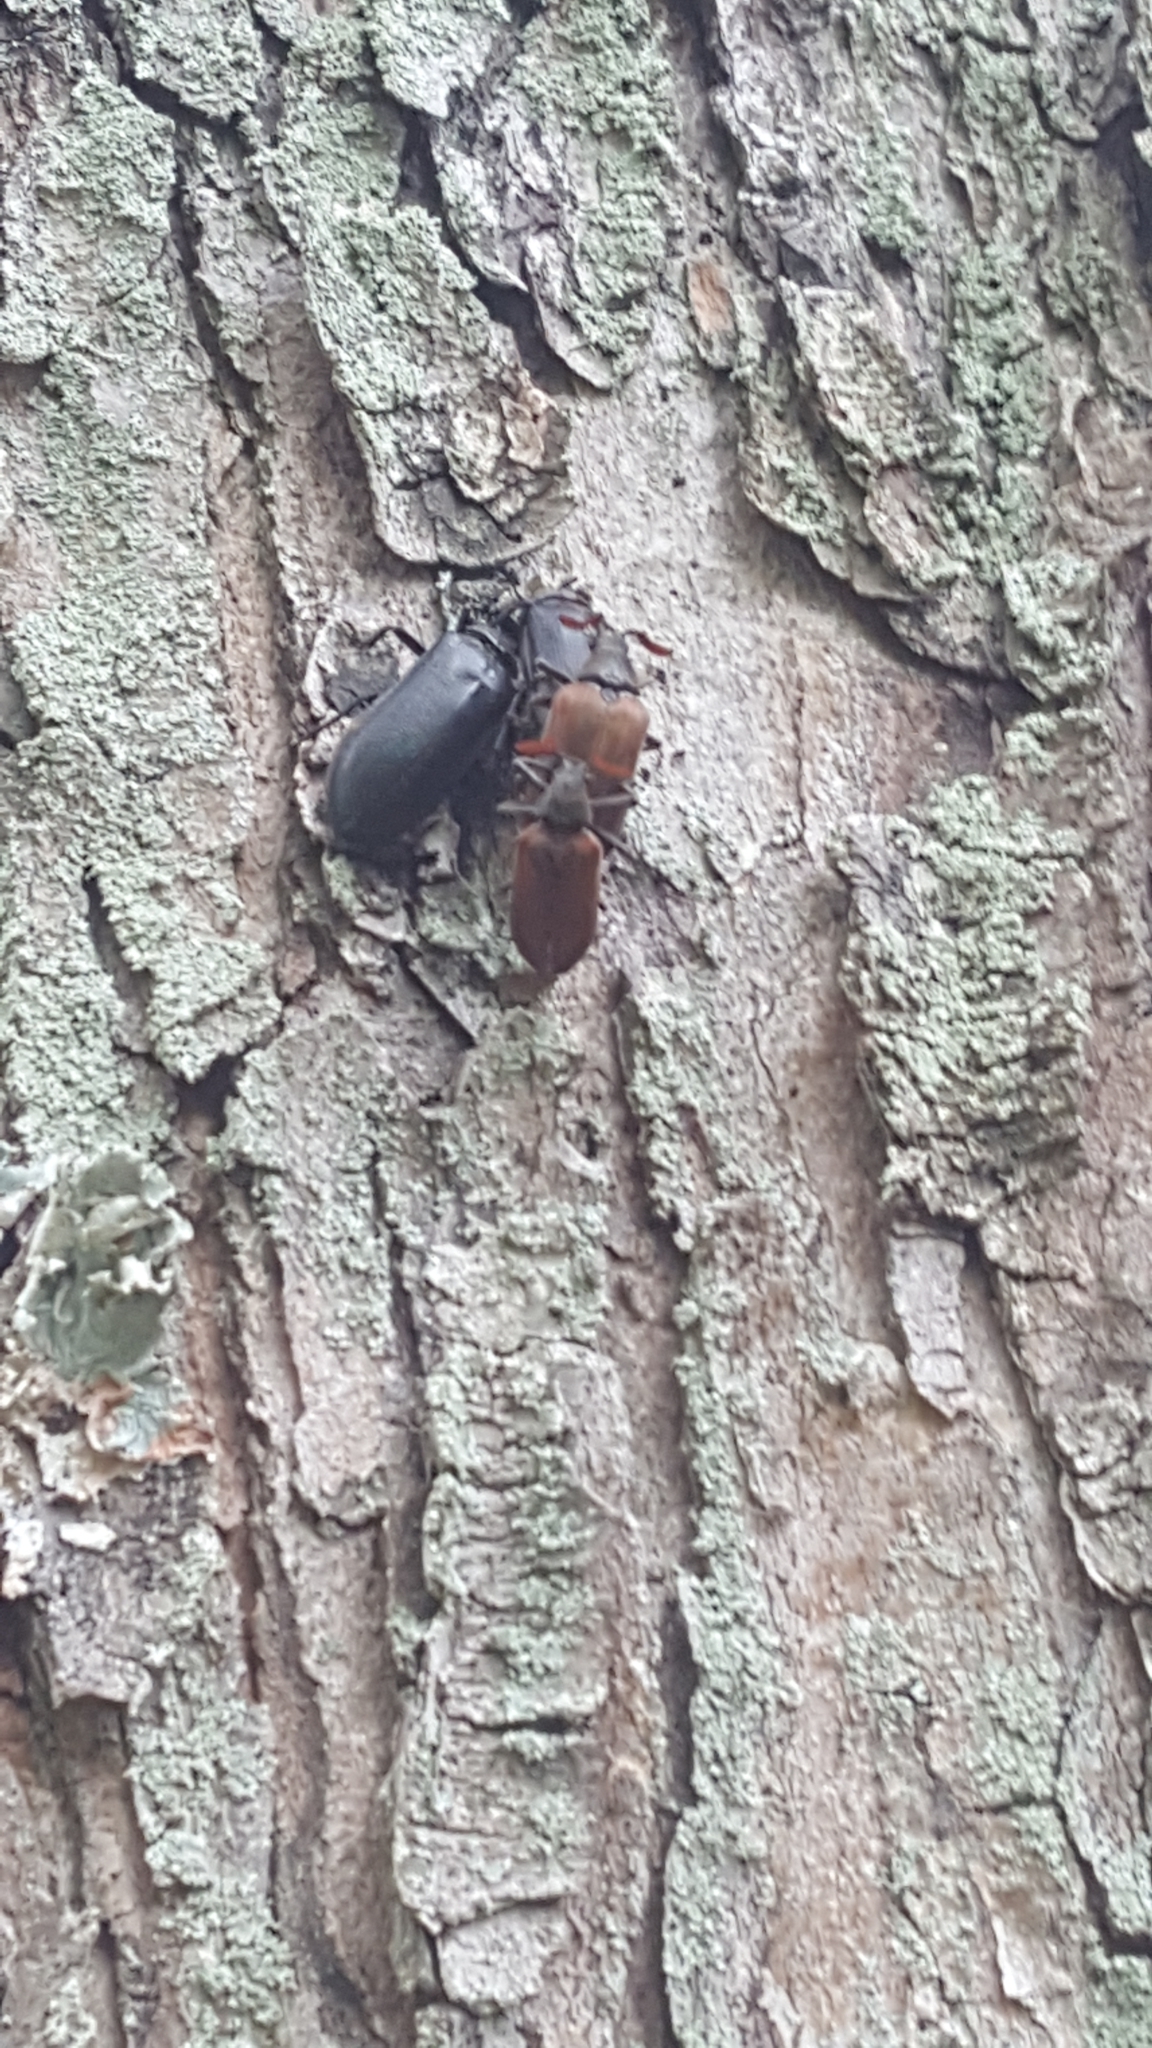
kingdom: Animalia
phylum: Arthropoda
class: Insecta
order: Coleoptera
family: Rhipiceridae
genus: Sandalus
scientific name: Sandalus niger
